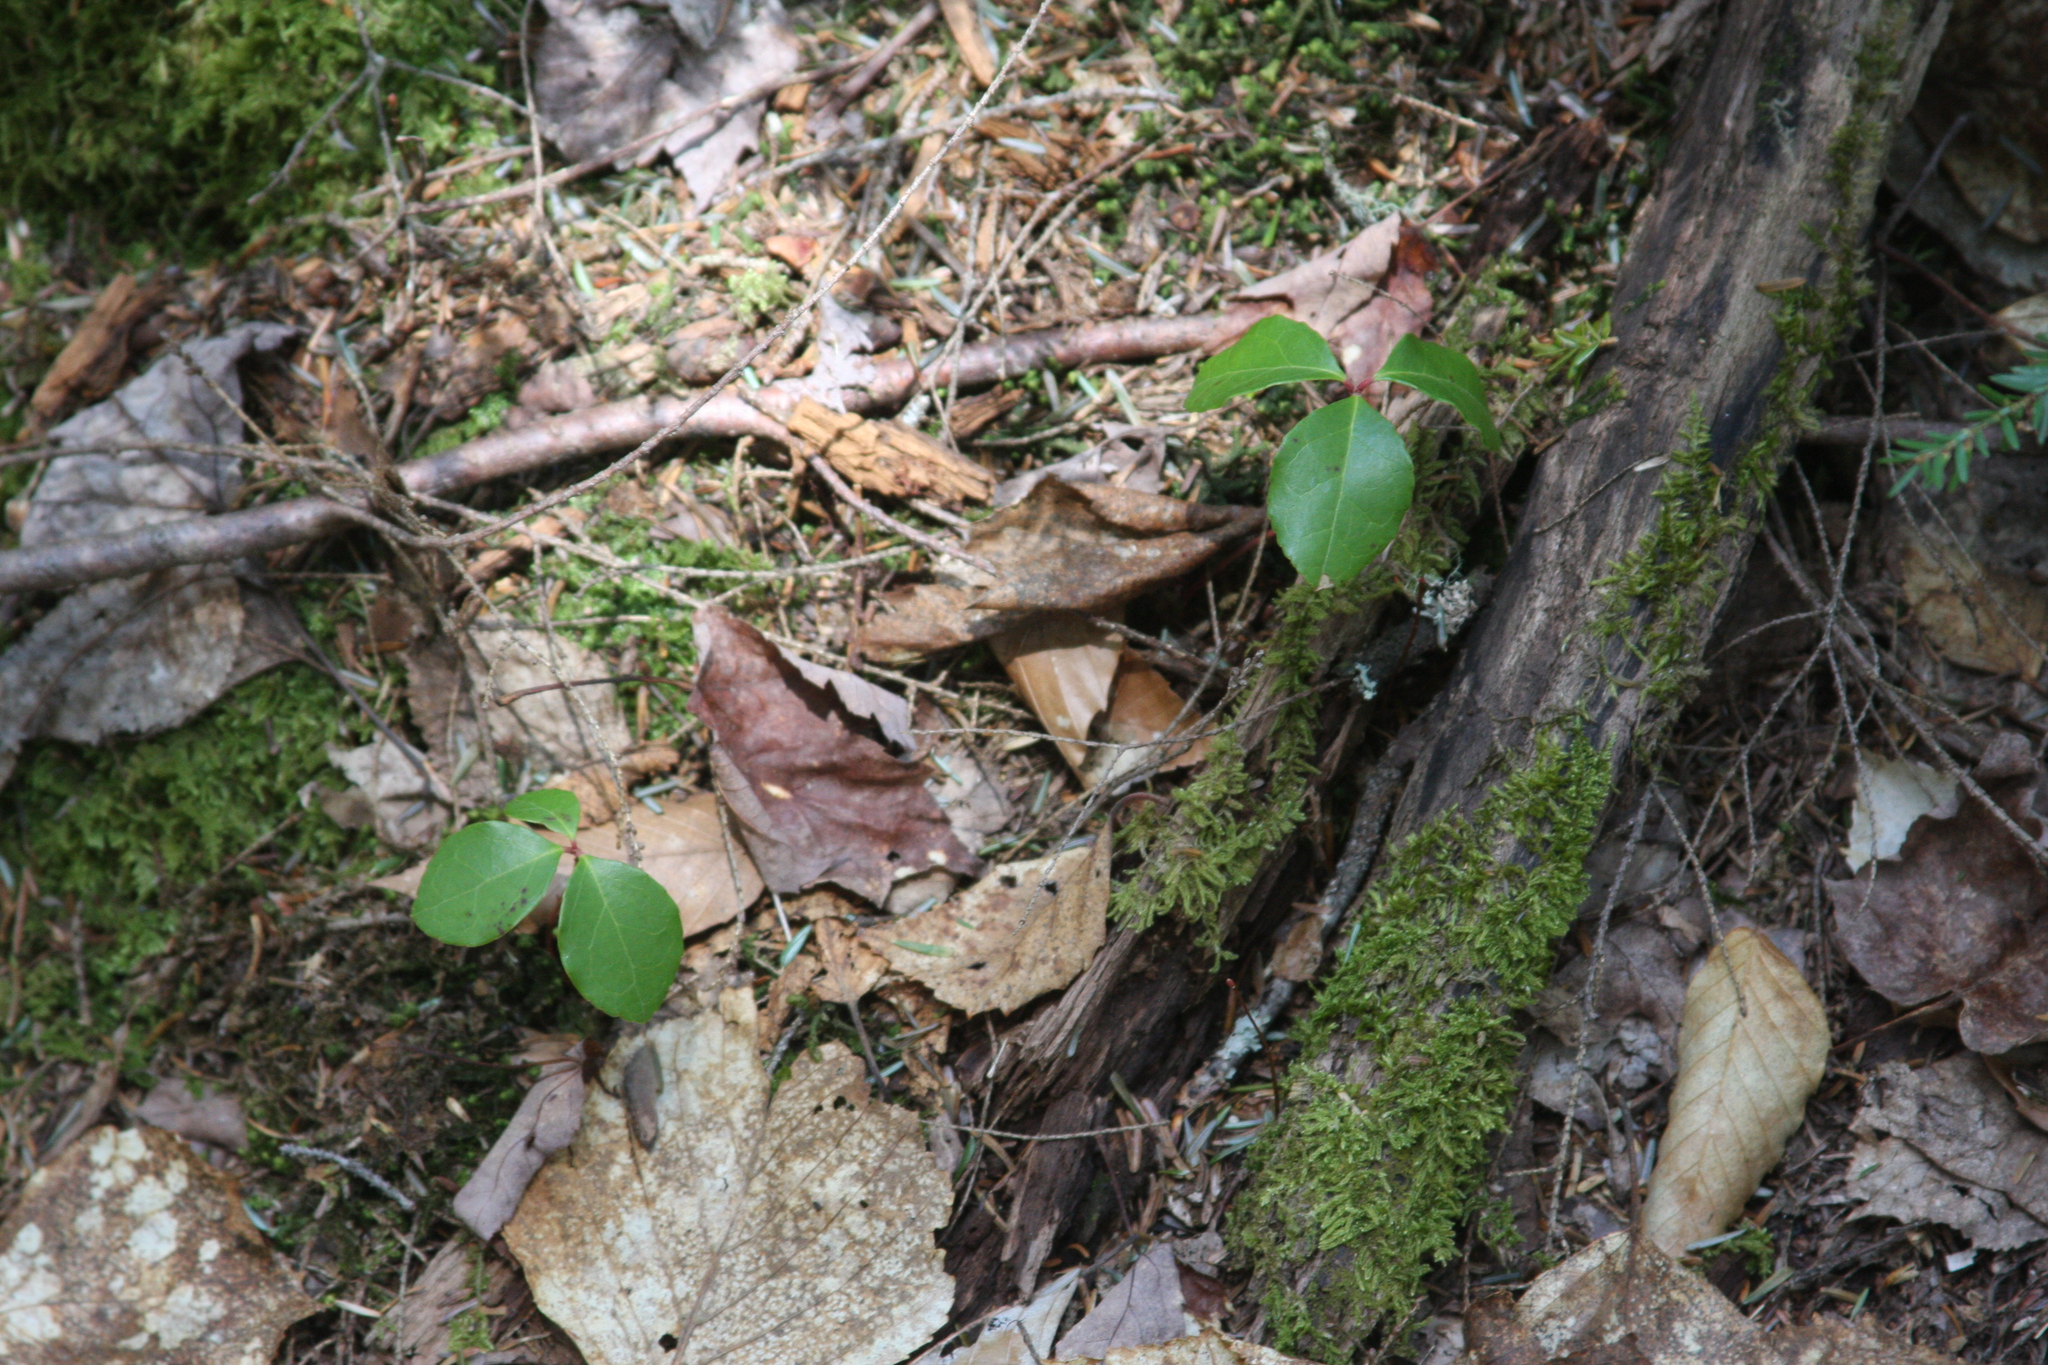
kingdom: Plantae
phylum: Tracheophyta
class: Magnoliopsida
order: Ericales
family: Ericaceae
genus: Gaultheria
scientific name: Gaultheria procumbens
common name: Checkerberry
